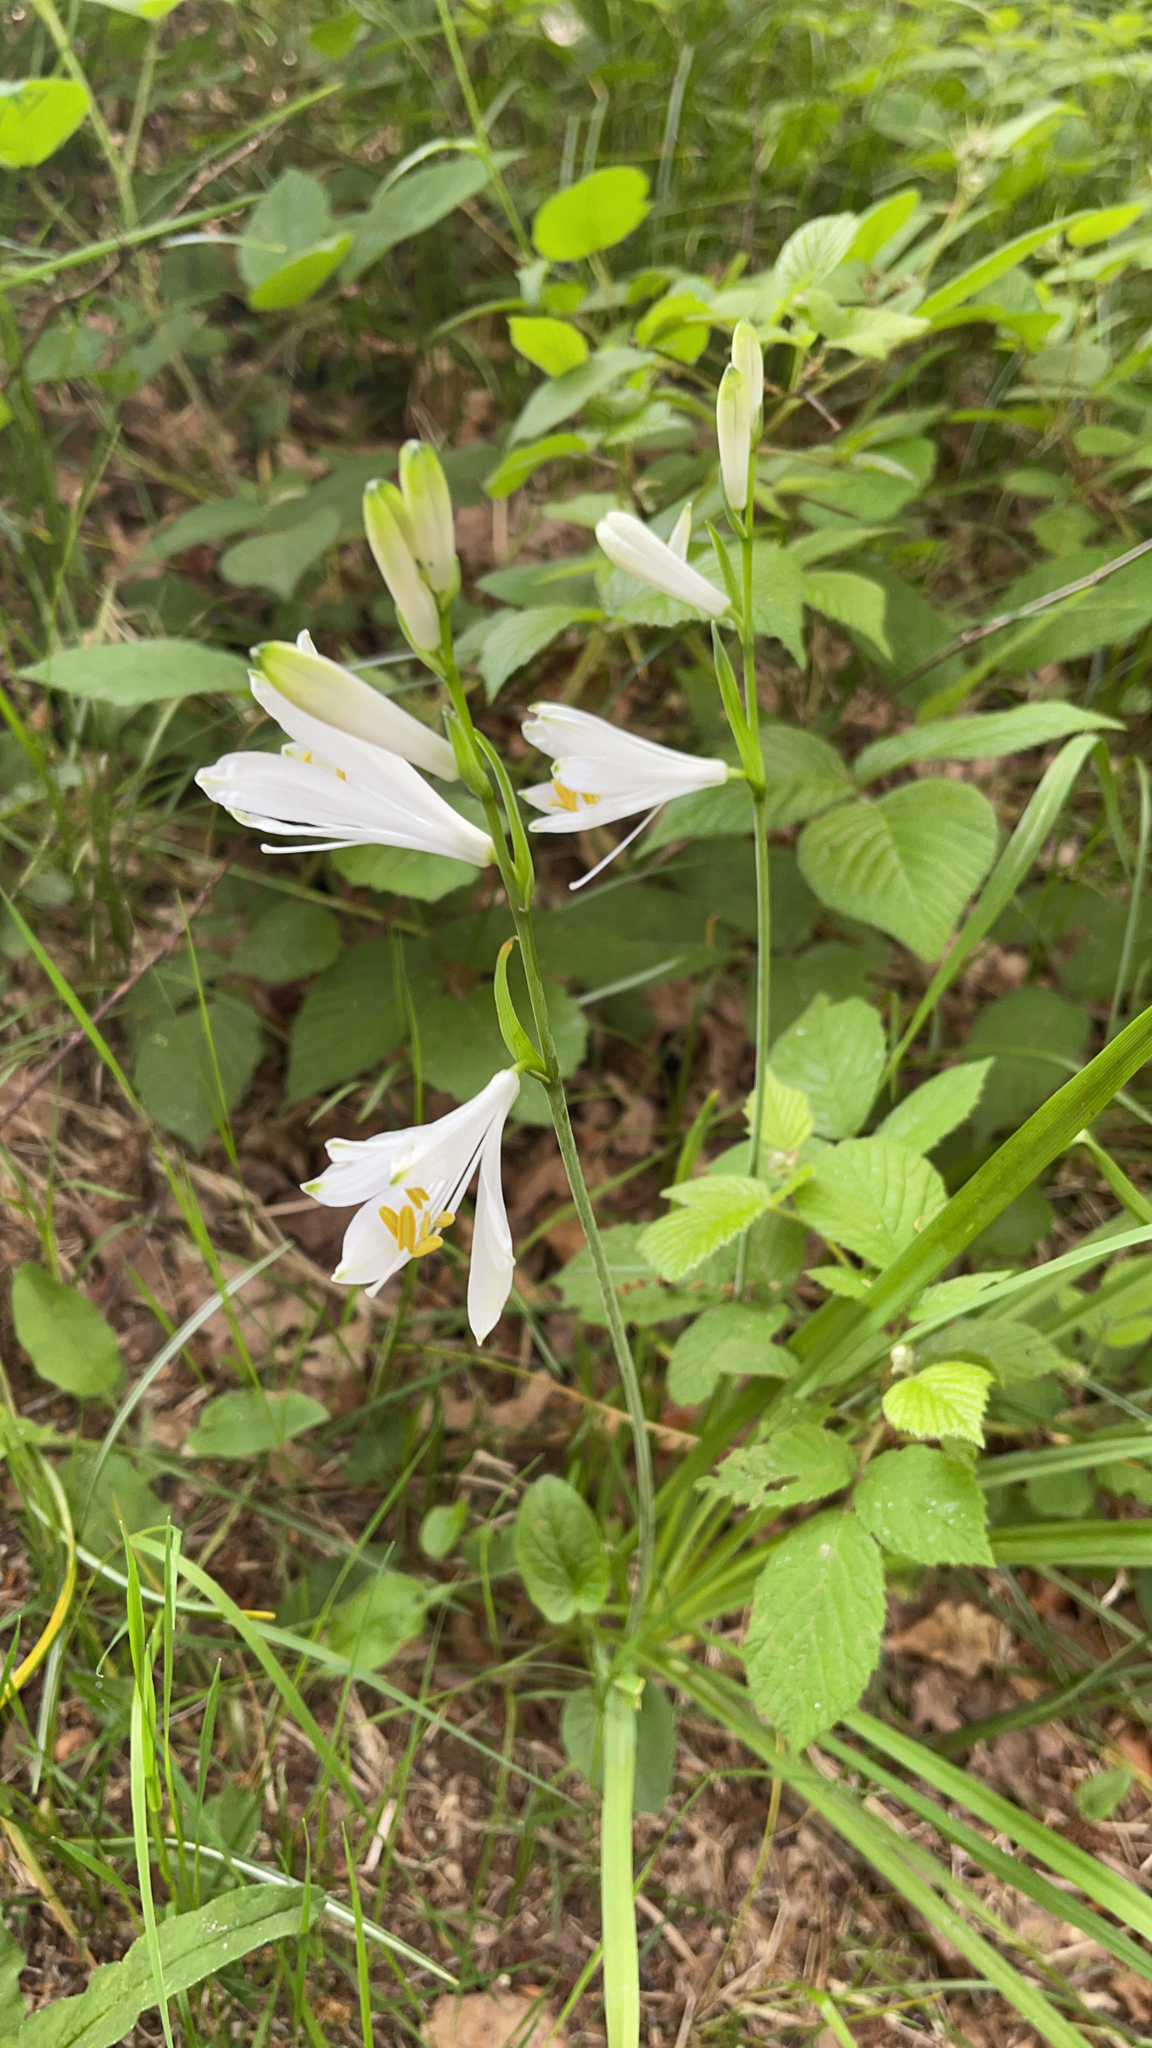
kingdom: Plantae
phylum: Tracheophyta
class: Liliopsida
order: Asparagales
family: Asparagaceae
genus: Paradisea
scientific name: Paradisea liliastrum
